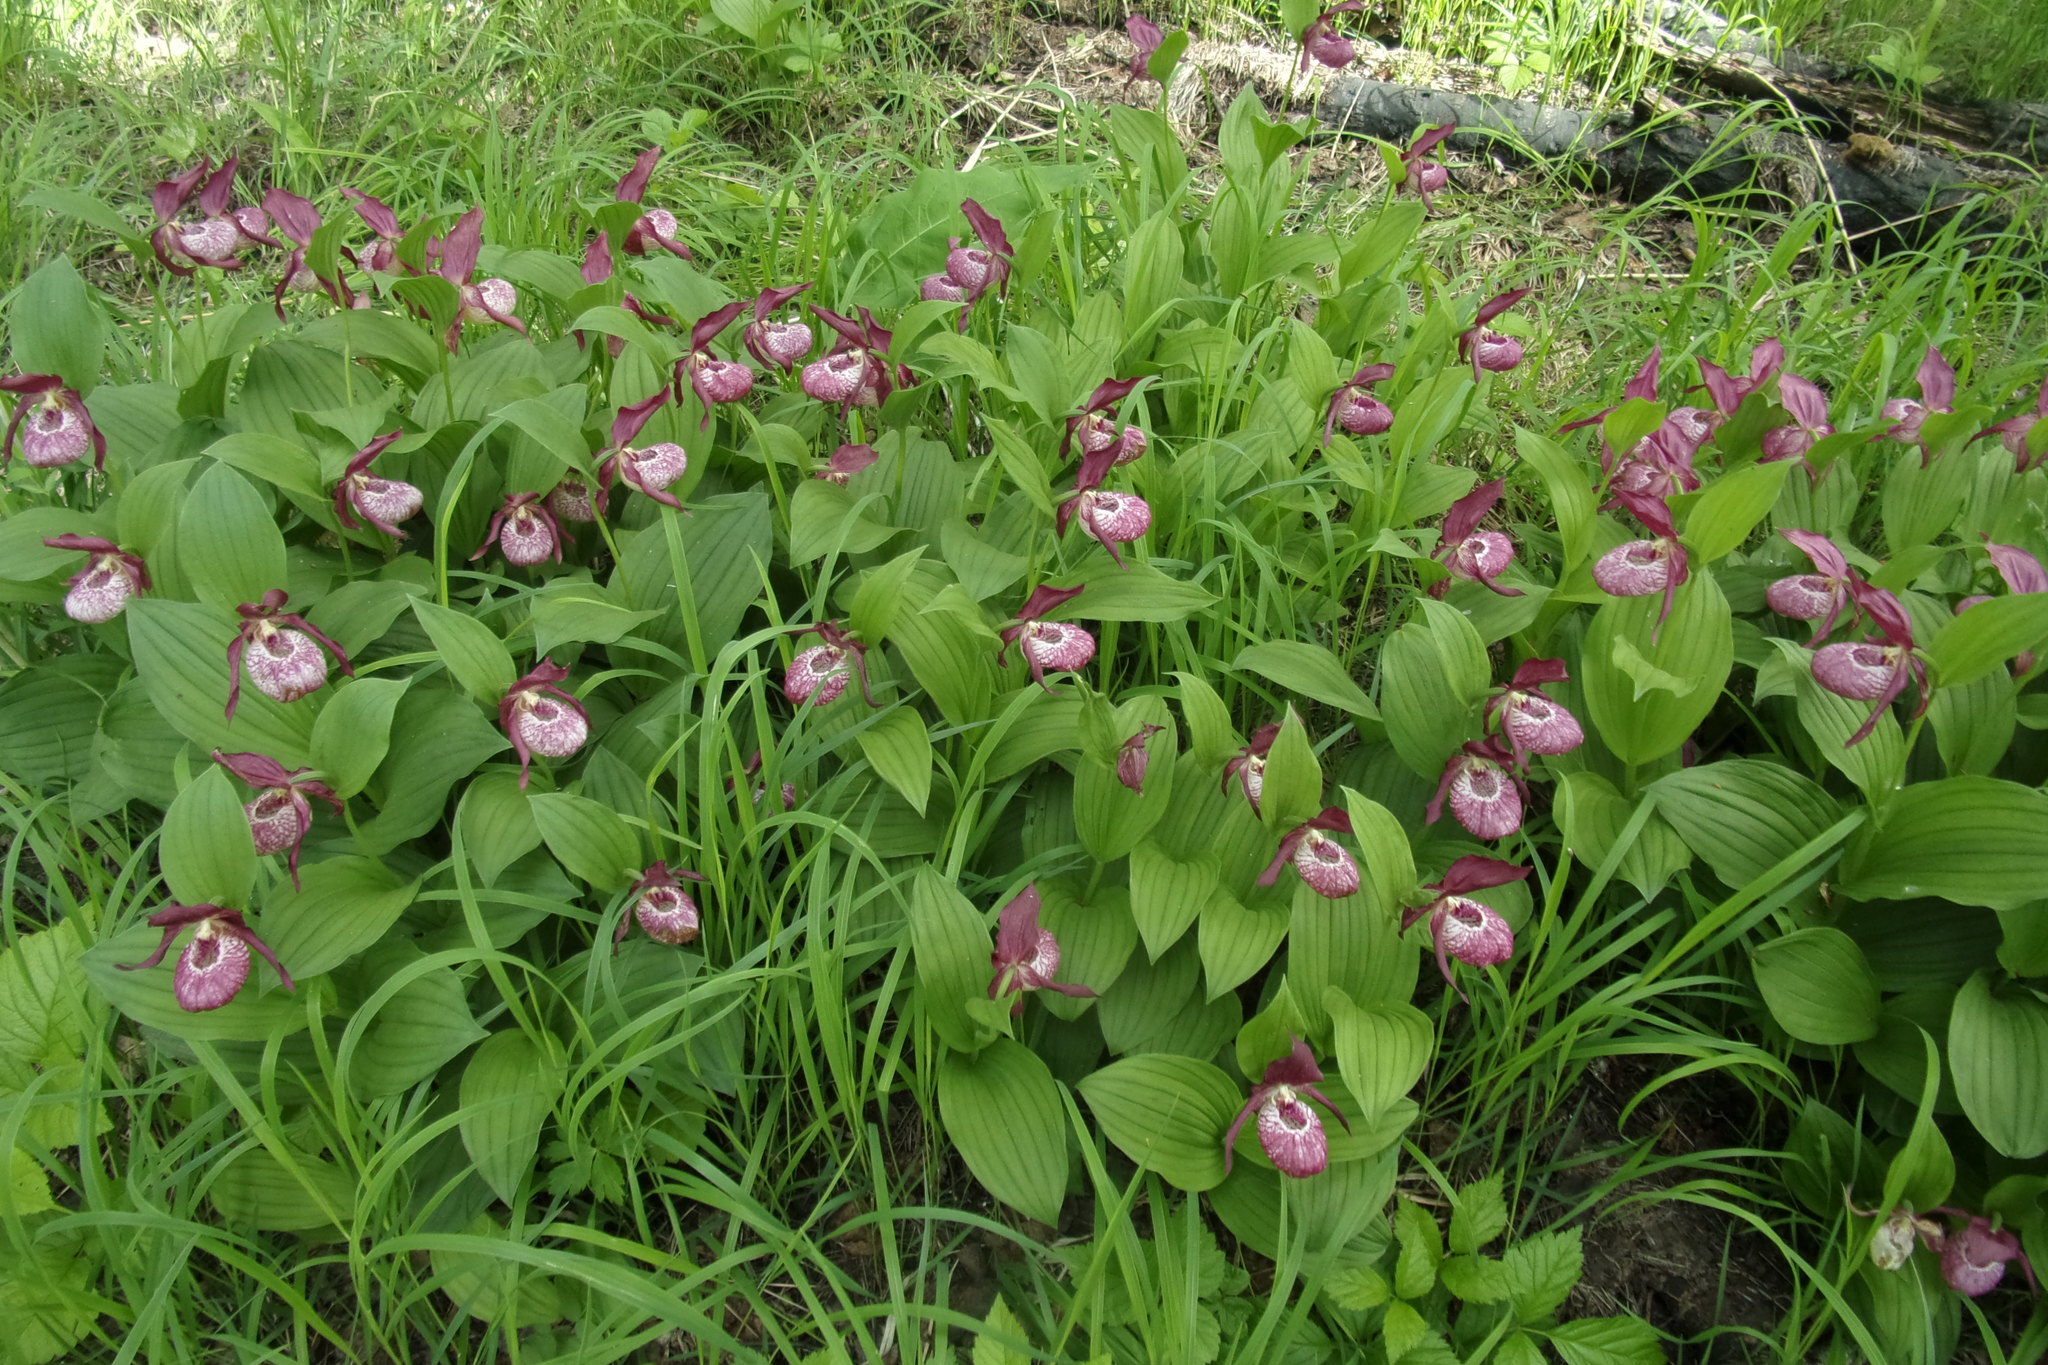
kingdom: Plantae
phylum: Tracheophyta
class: Liliopsida
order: Asparagales
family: Orchidaceae
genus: Cypripedium
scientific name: Cypripedium ventricosum
